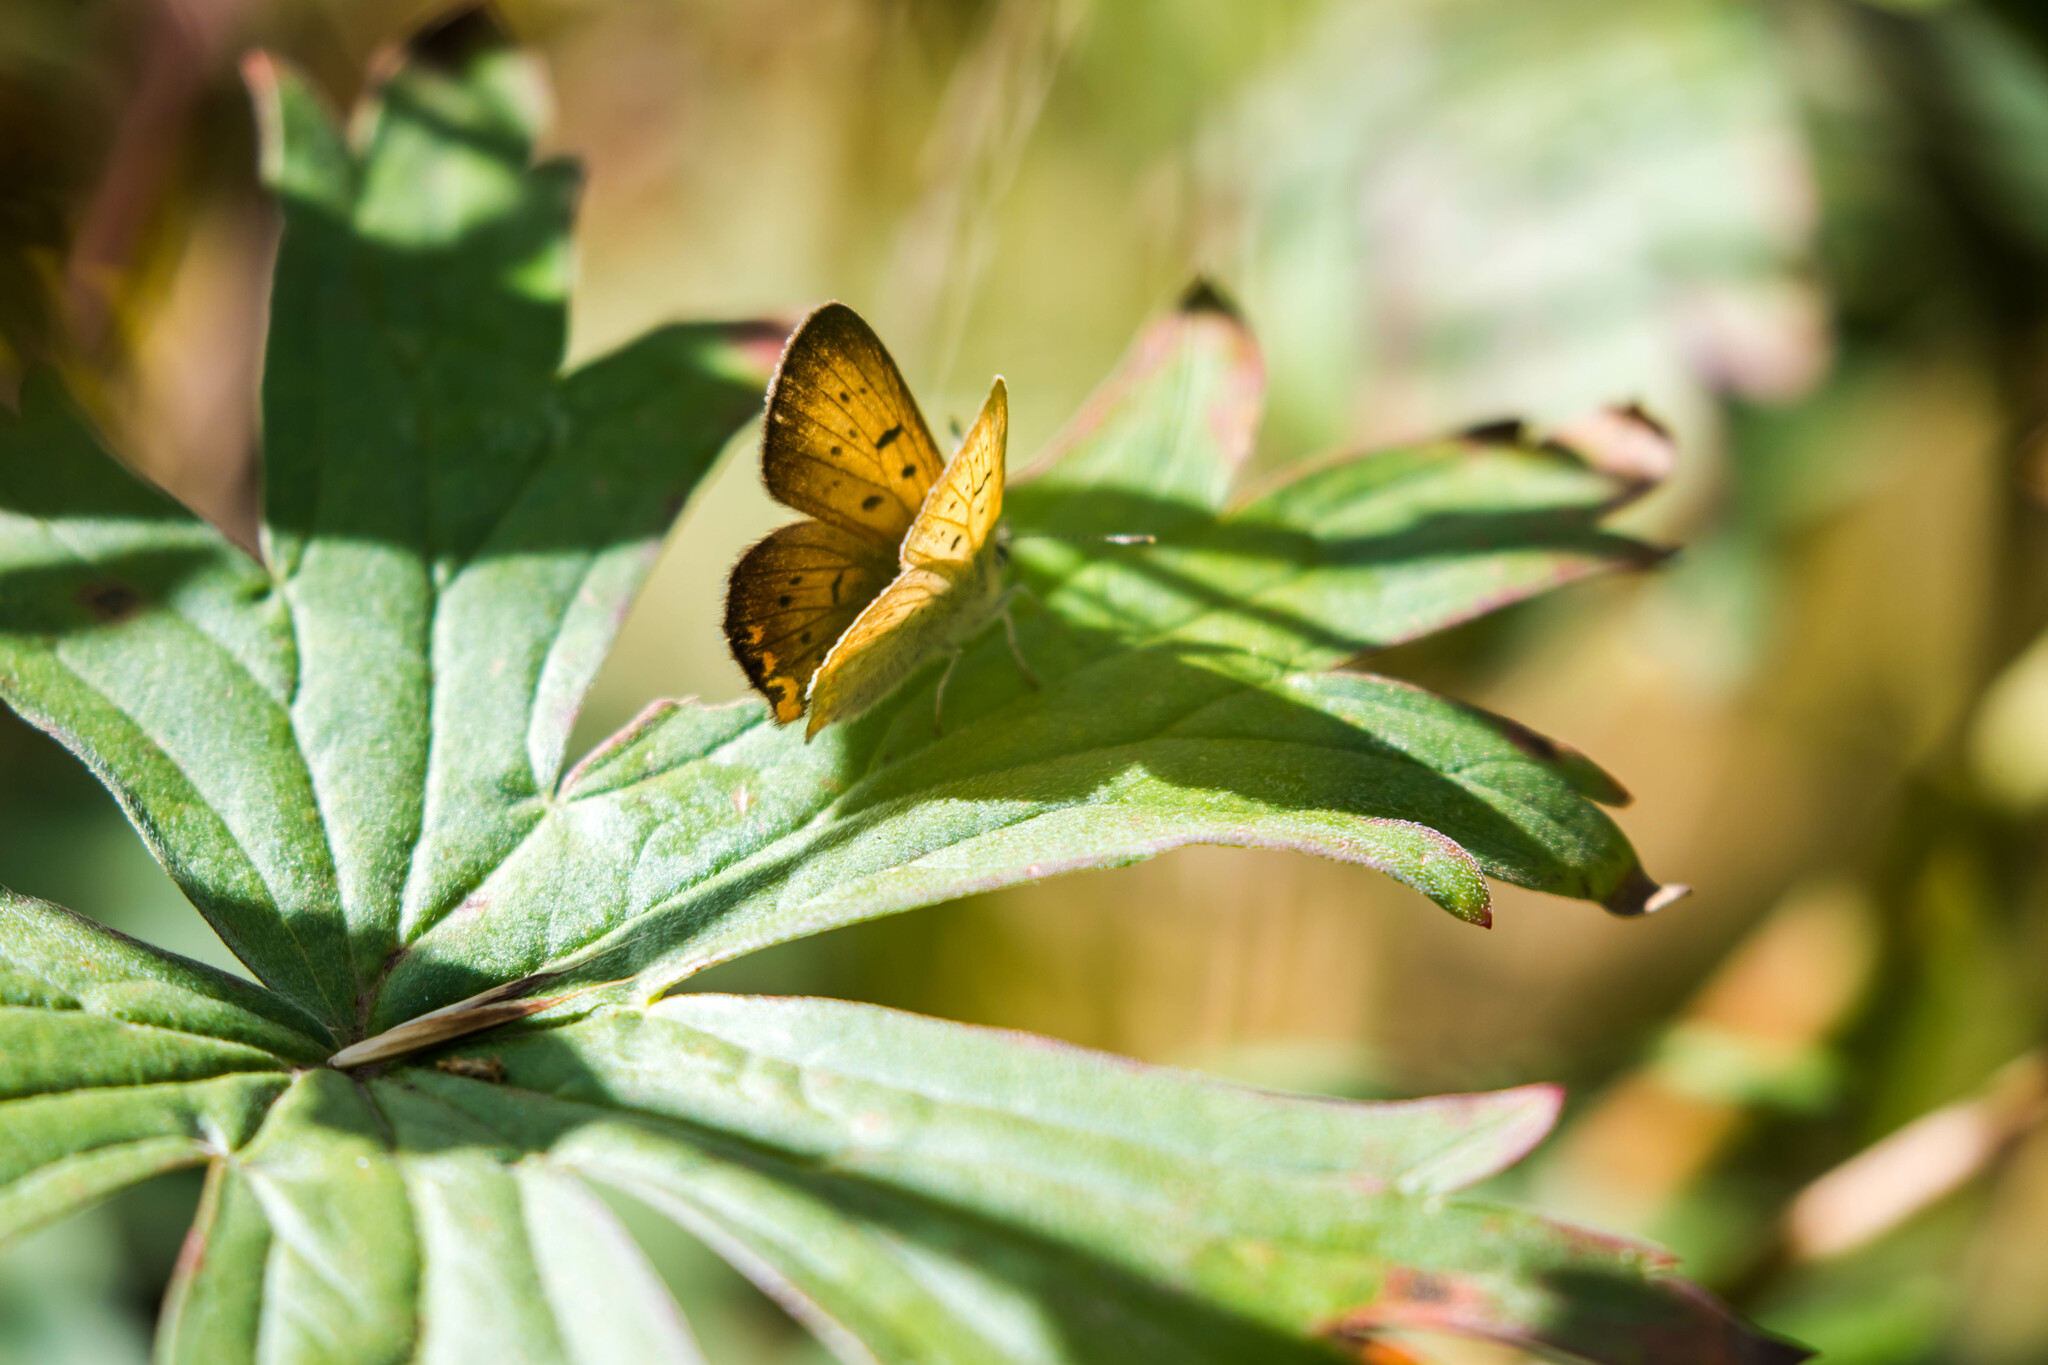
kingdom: Animalia
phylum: Arthropoda
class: Insecta
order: Lepidoptera
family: Lycaenidae
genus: Tharsalea
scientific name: Tharsalea helloides
